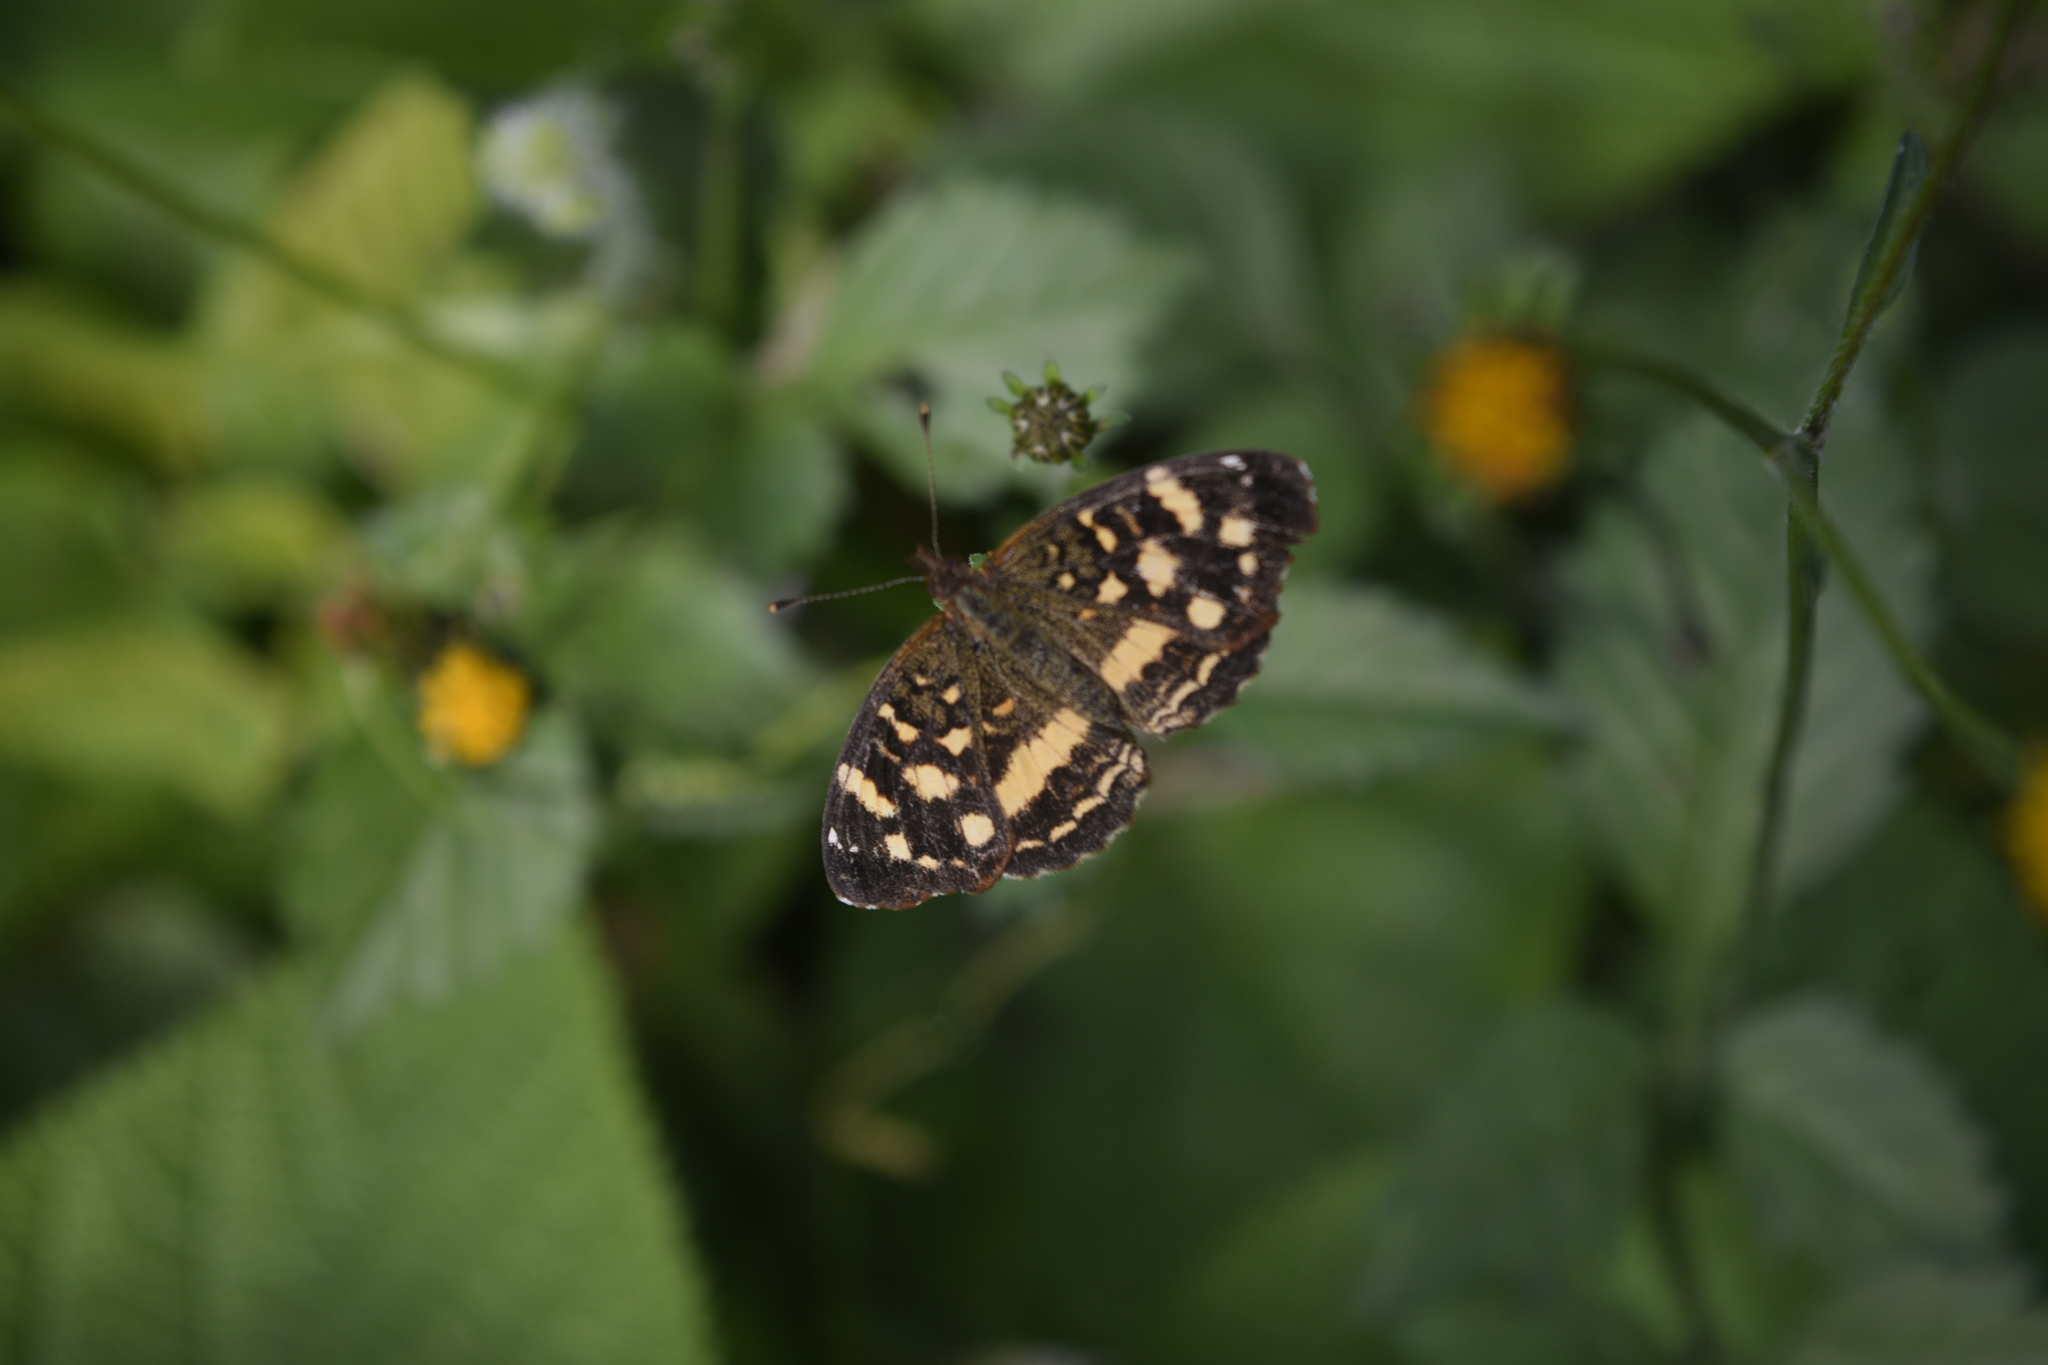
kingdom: Animalia
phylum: Arthropoda
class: Insecta
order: Lepidoptera
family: Nymphalidae
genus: Anthanassa
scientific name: Anthanassa tulcis
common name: Pale-banded crescent
